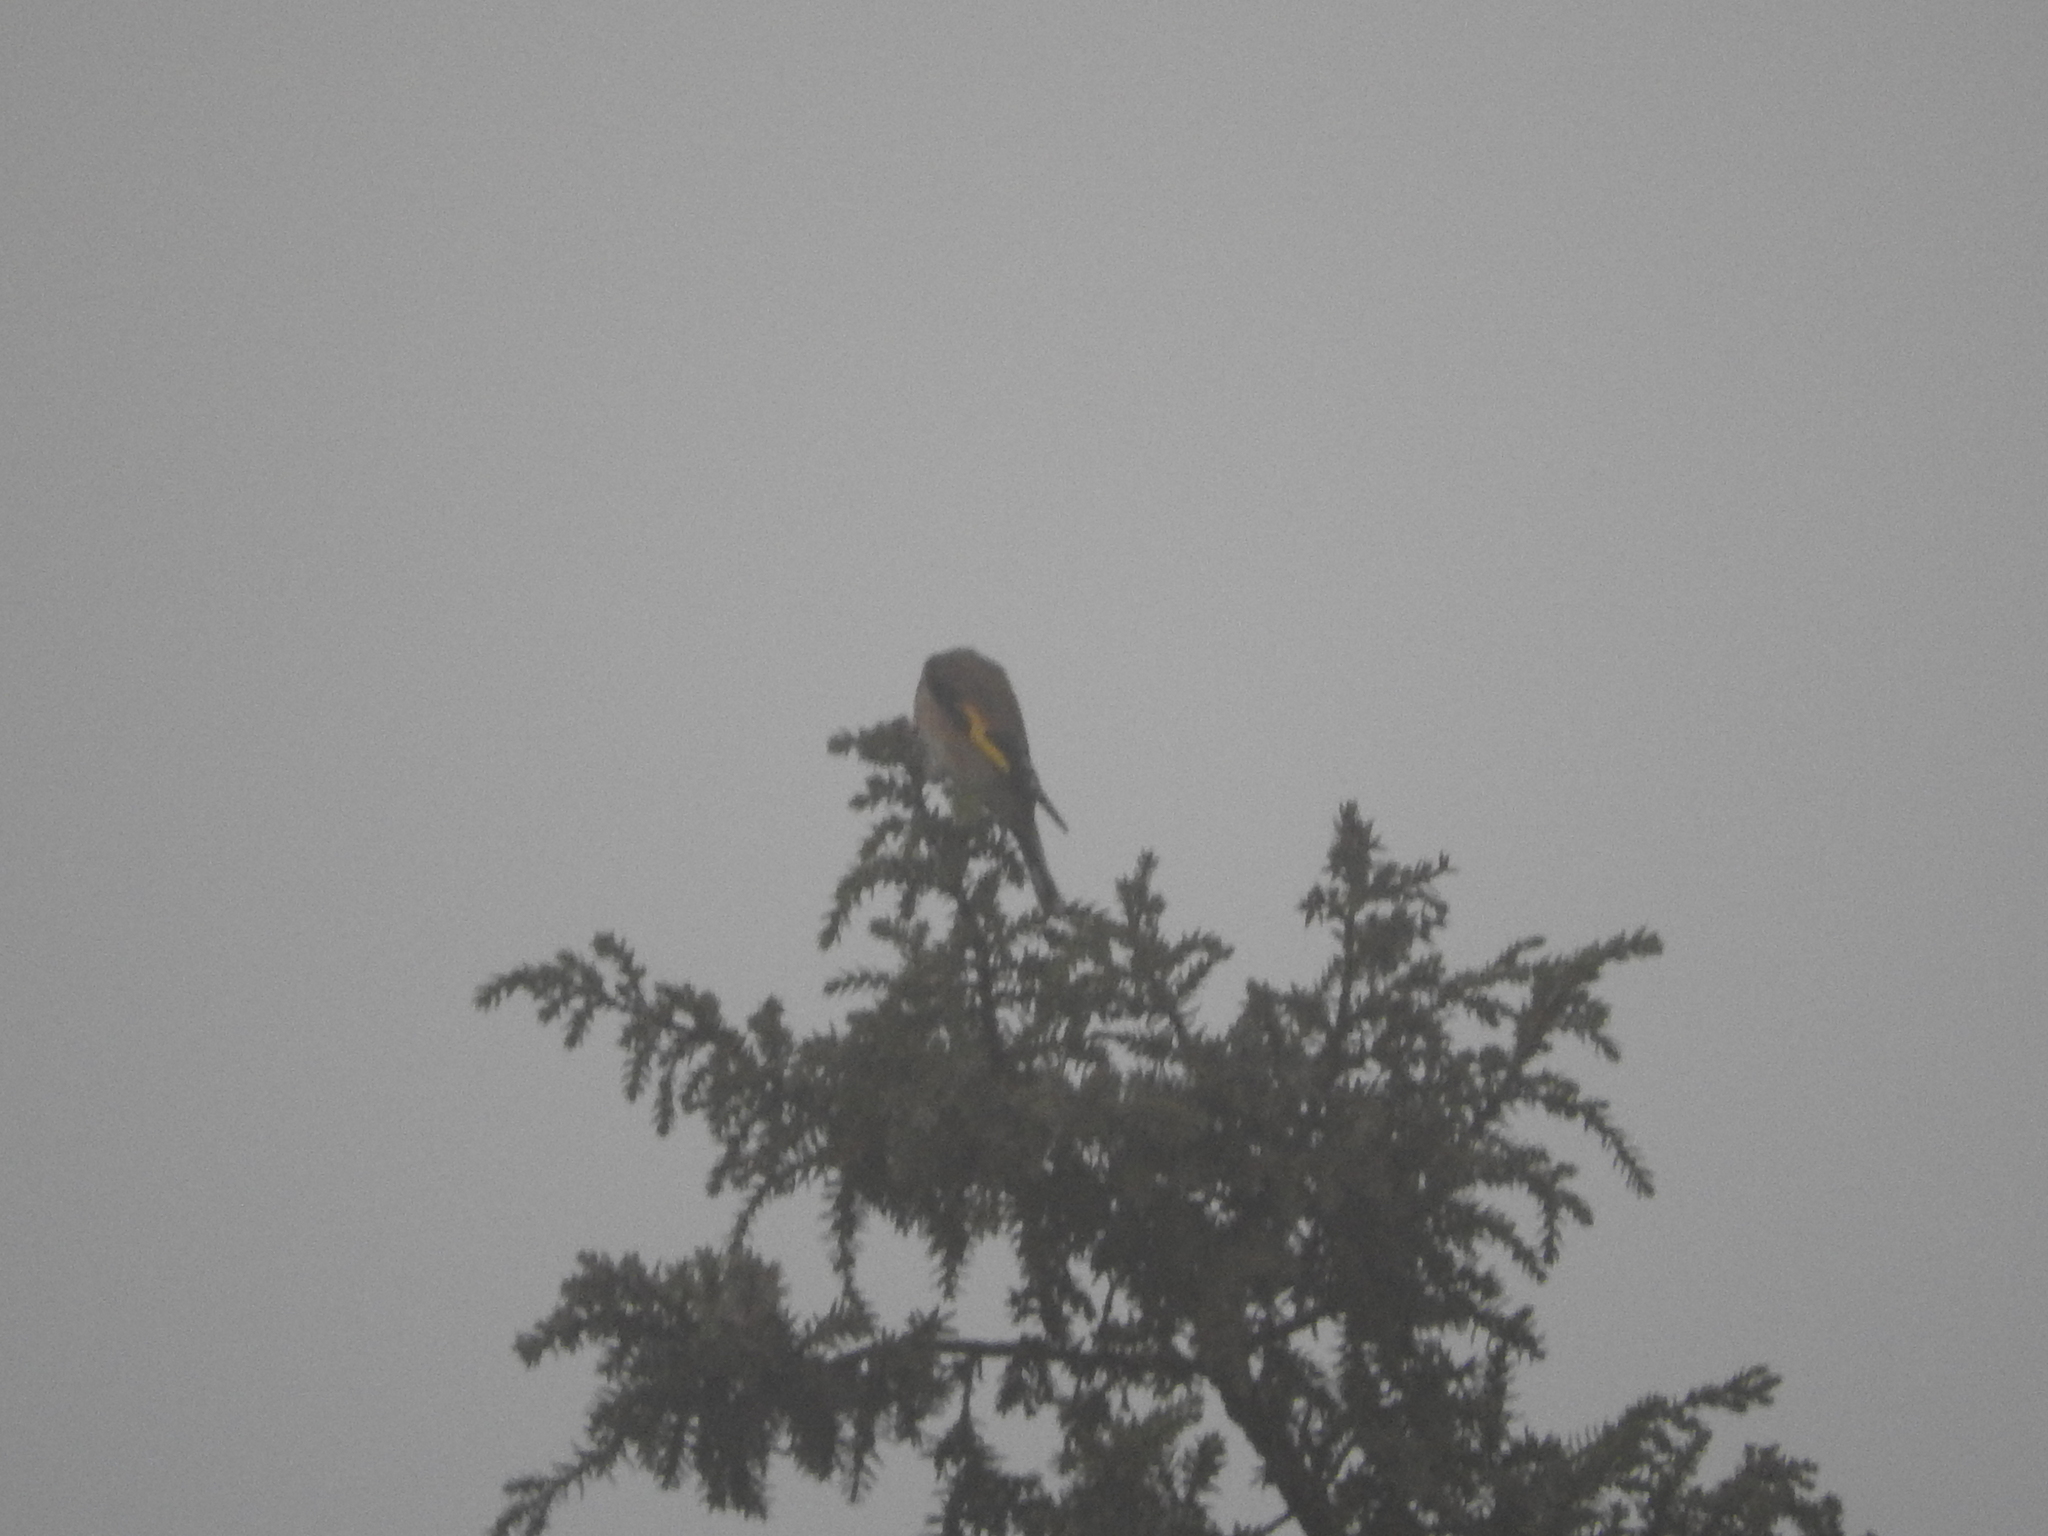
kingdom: Animalia
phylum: Chordata
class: Aves
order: Passeriformes
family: Fringillidae
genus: Carduelis
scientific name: Carduelis carduelis
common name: European goldfinch
